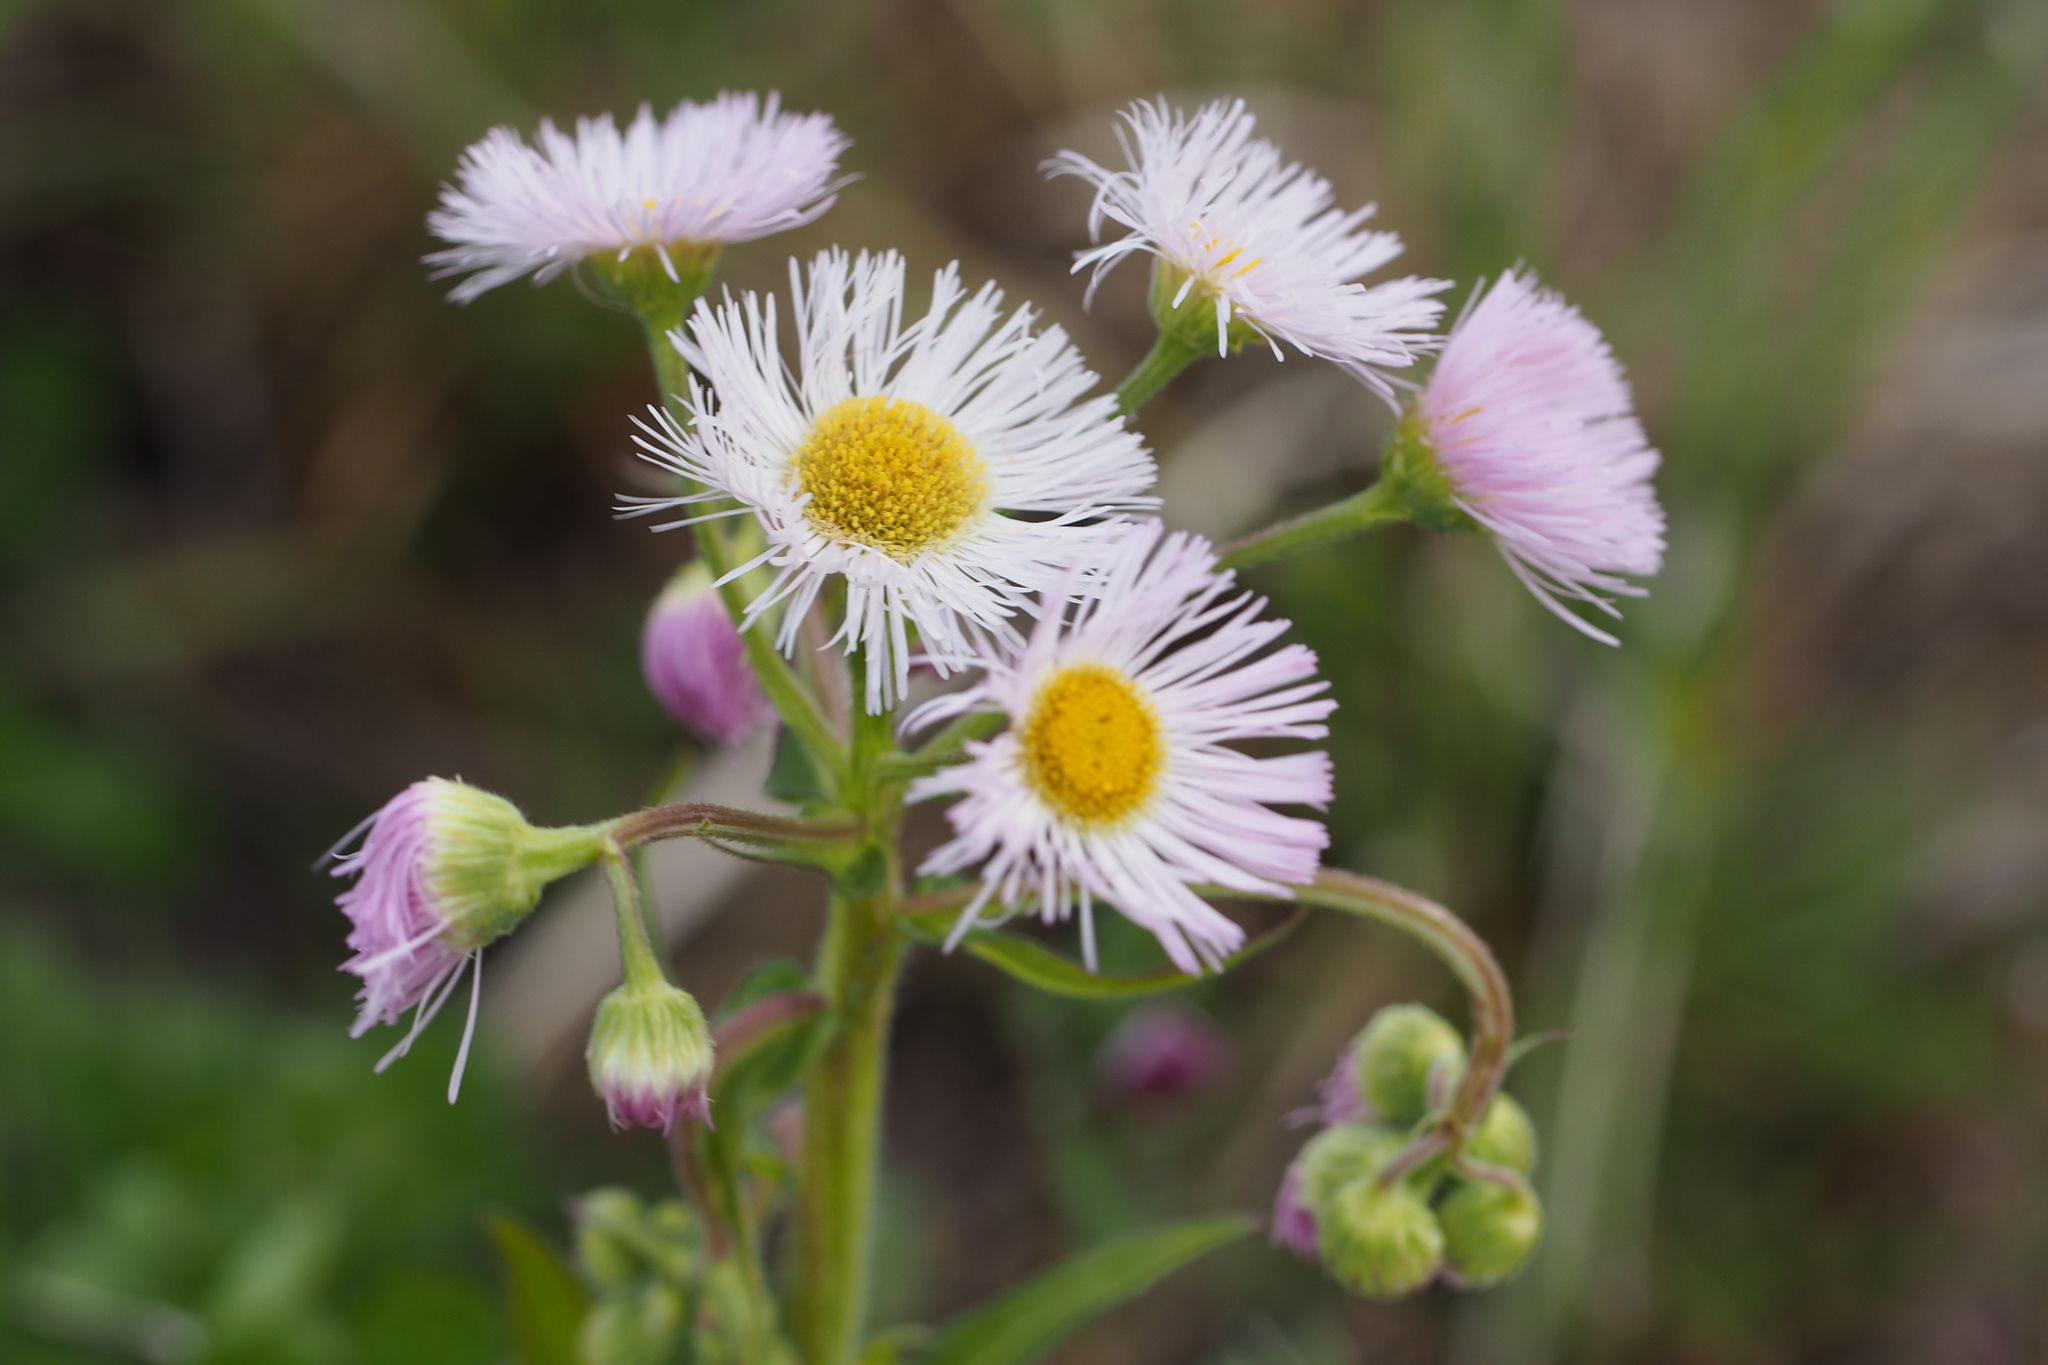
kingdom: Plantae
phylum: Tracheophyta
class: Magnoliopsida
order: Asterales
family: Asteraceae
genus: Erigeron
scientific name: Erigeron philadelphicus
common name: Robin's-plantain
